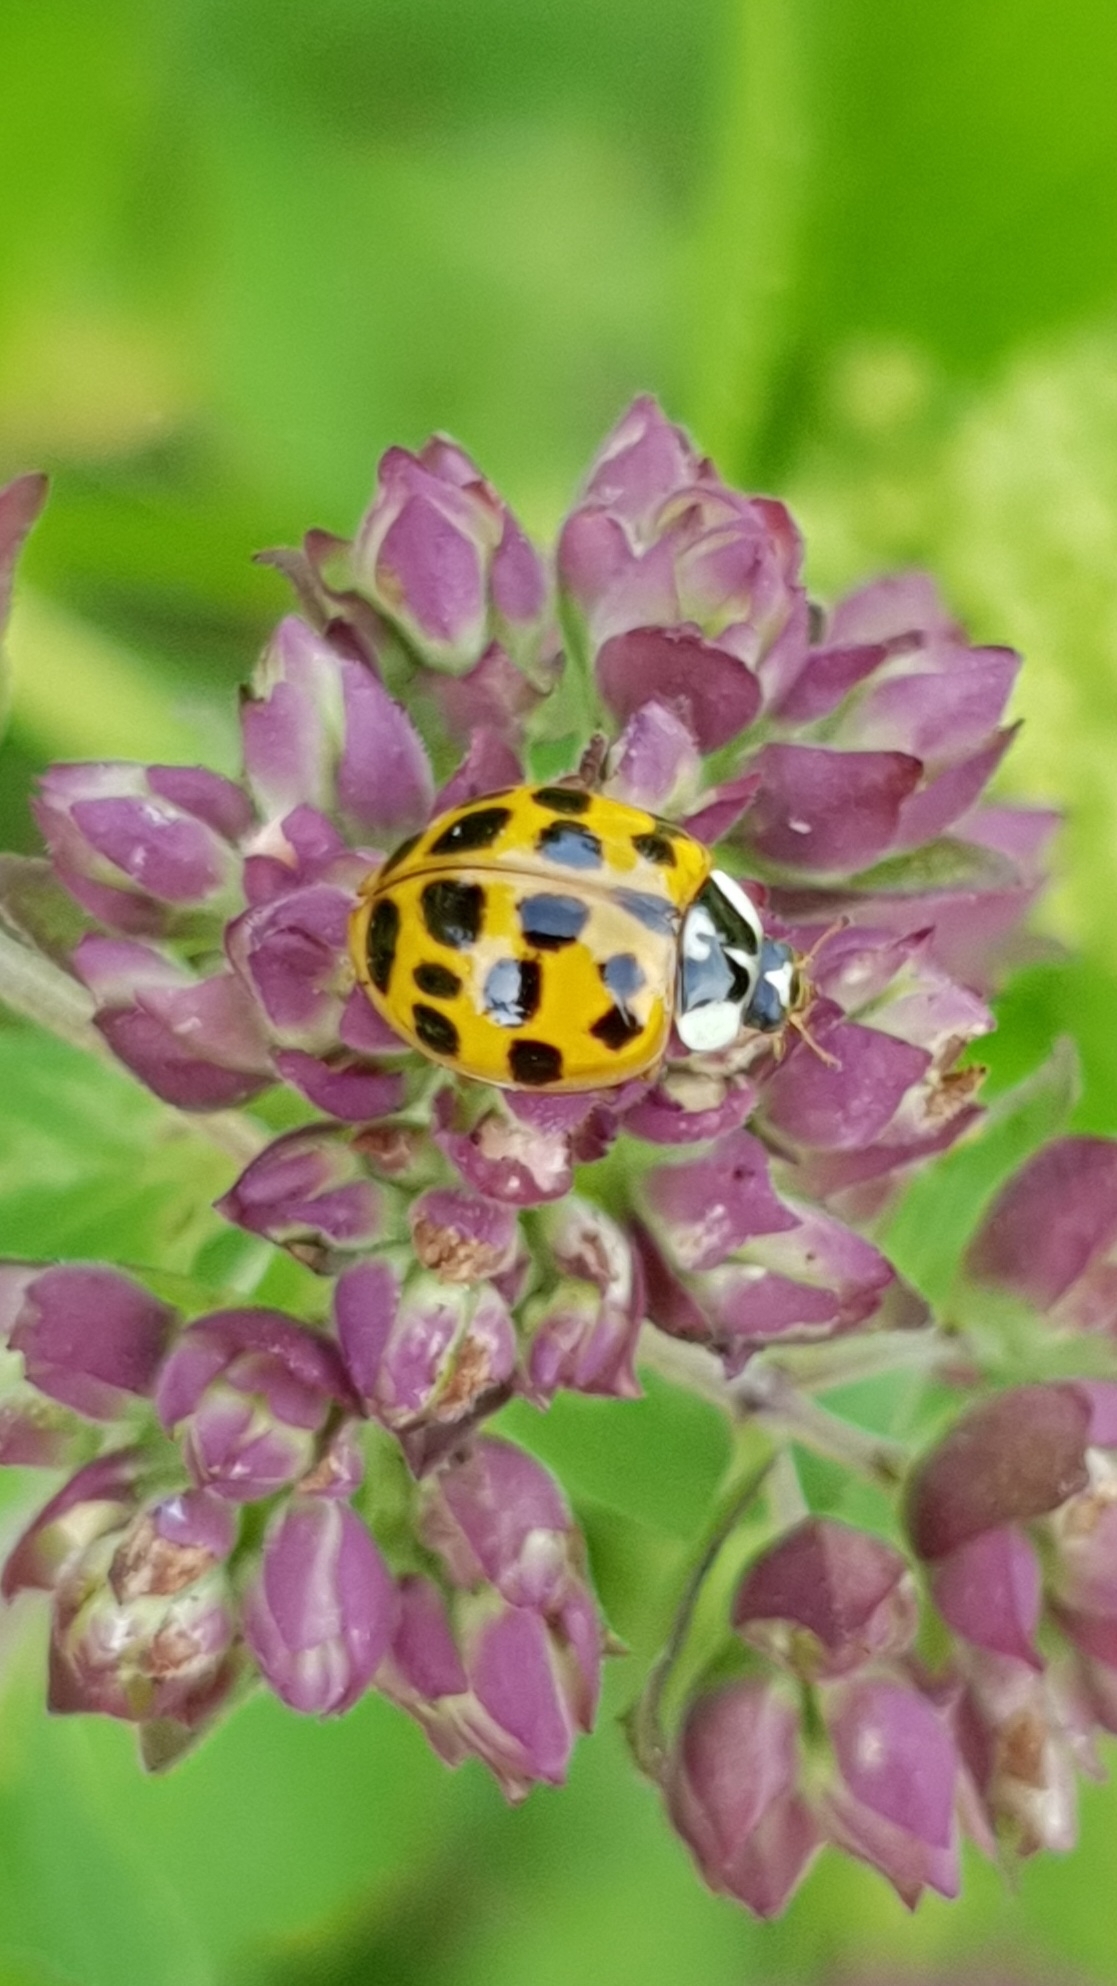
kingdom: Animalia
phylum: Arthropoda
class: Insecta
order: Coleoptera
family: Coccinellidae
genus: Harmonia
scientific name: Harmonia axyridis
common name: Harlequin ladybird
